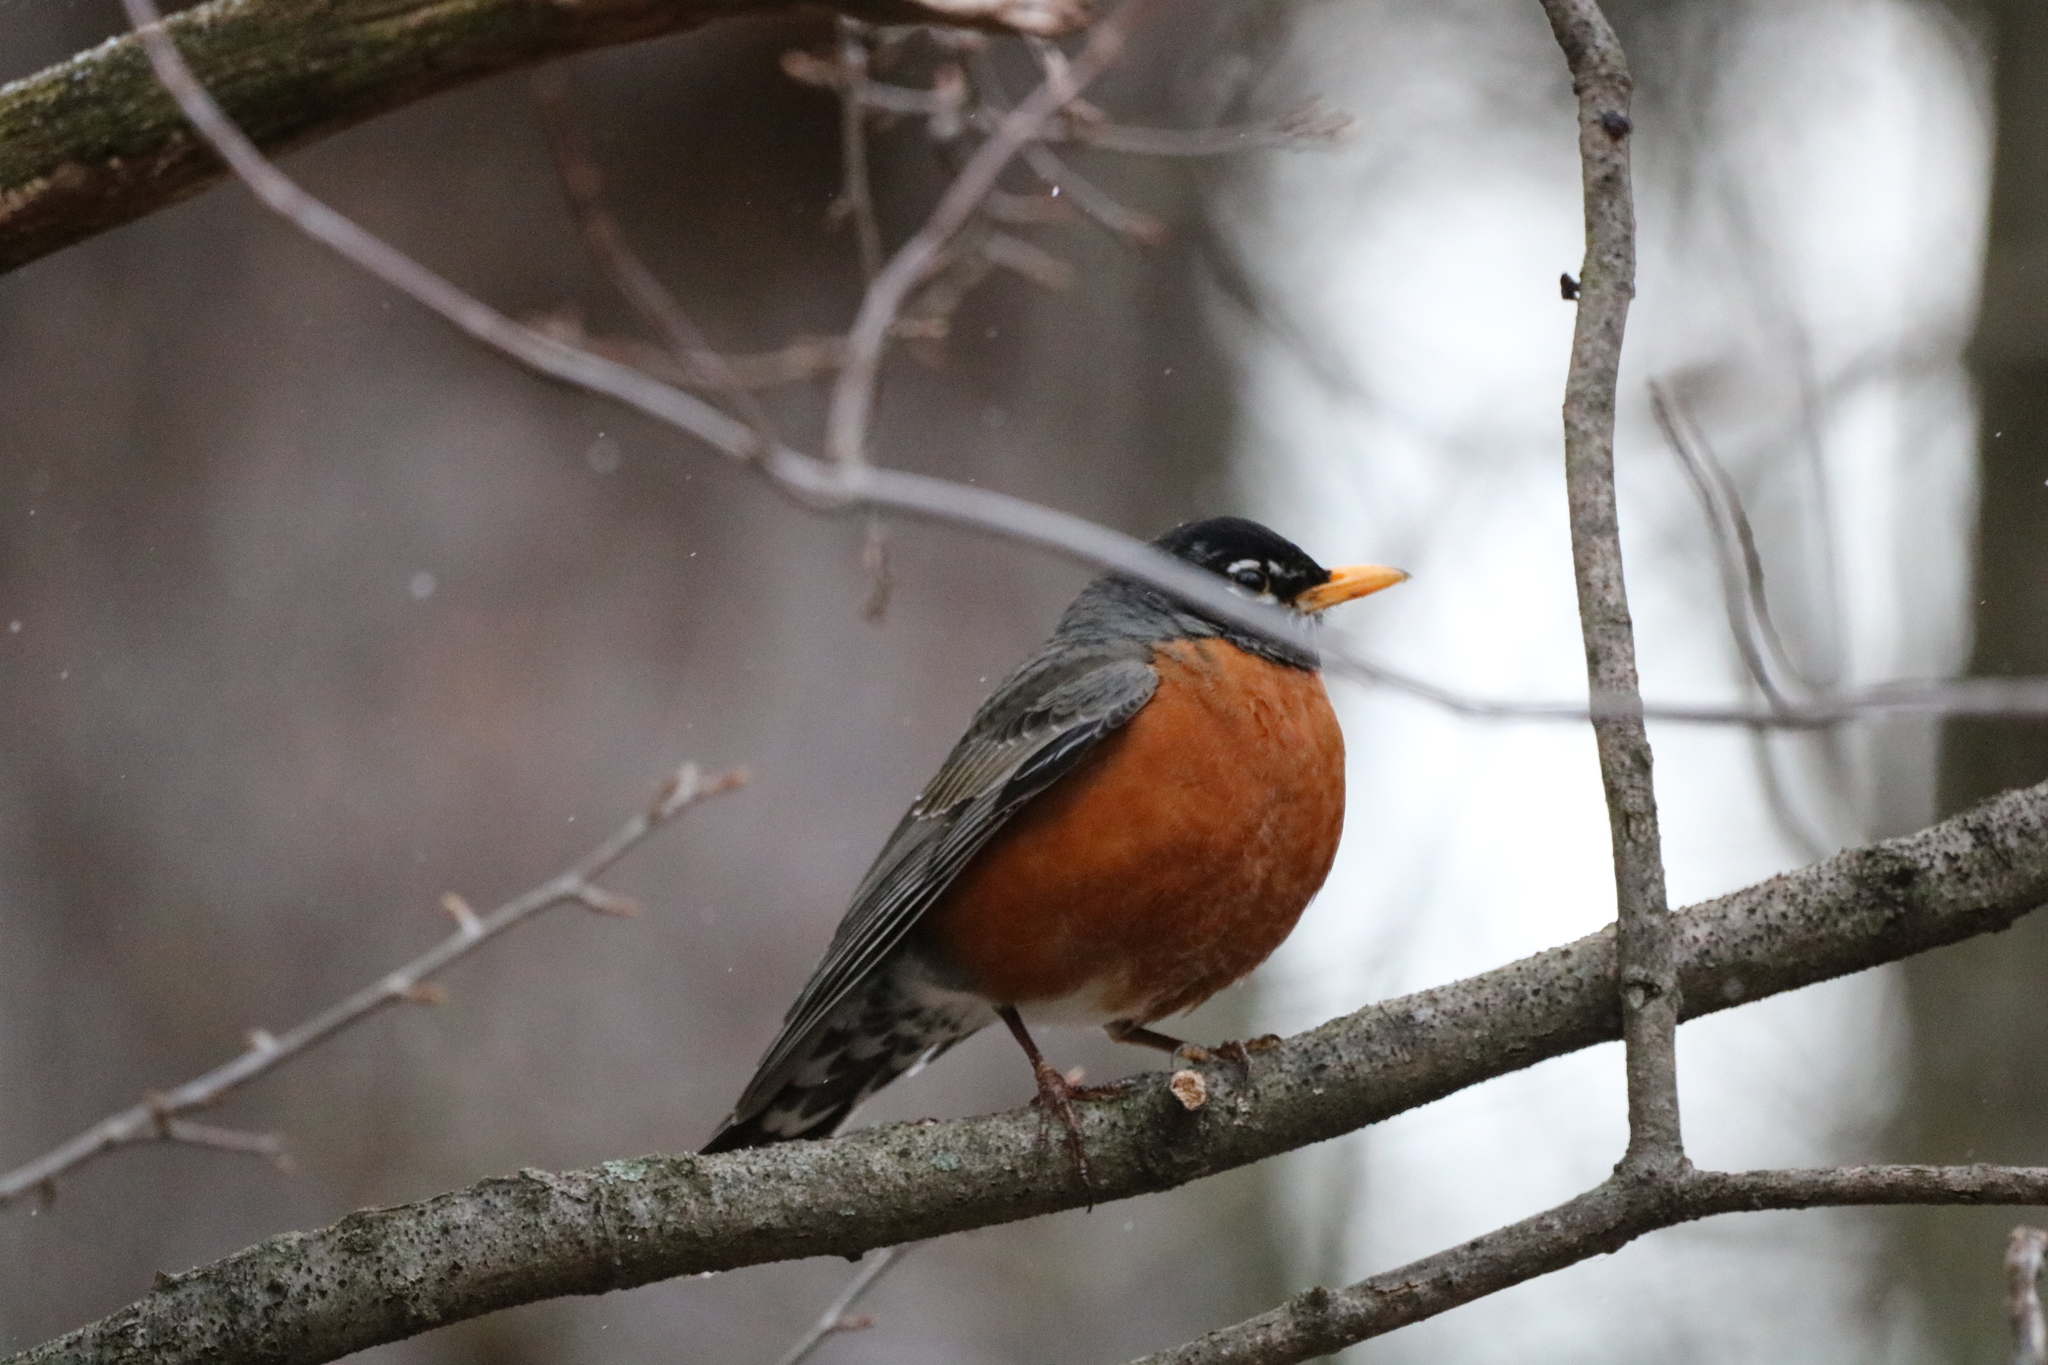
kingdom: Animalia
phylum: Chordata
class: Aves
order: Passeriformes
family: Turdidae
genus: Turdus
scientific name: Turdus migratorius
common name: American robin
